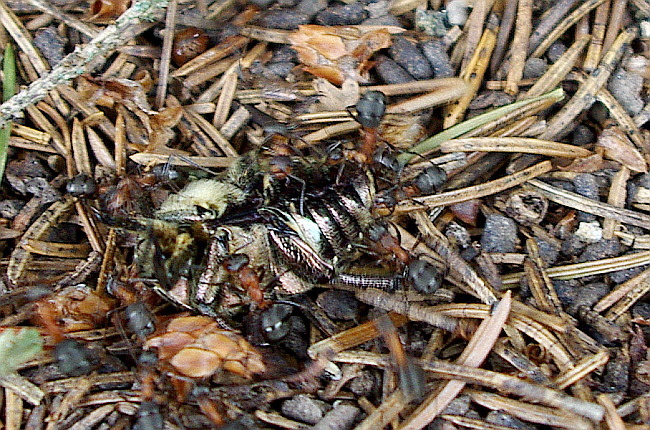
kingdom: Animalia
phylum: Arthropoda
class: Insecta
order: Coleoptera
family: Scarabaeidae
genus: Protaetia
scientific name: Protaetia cuprea
